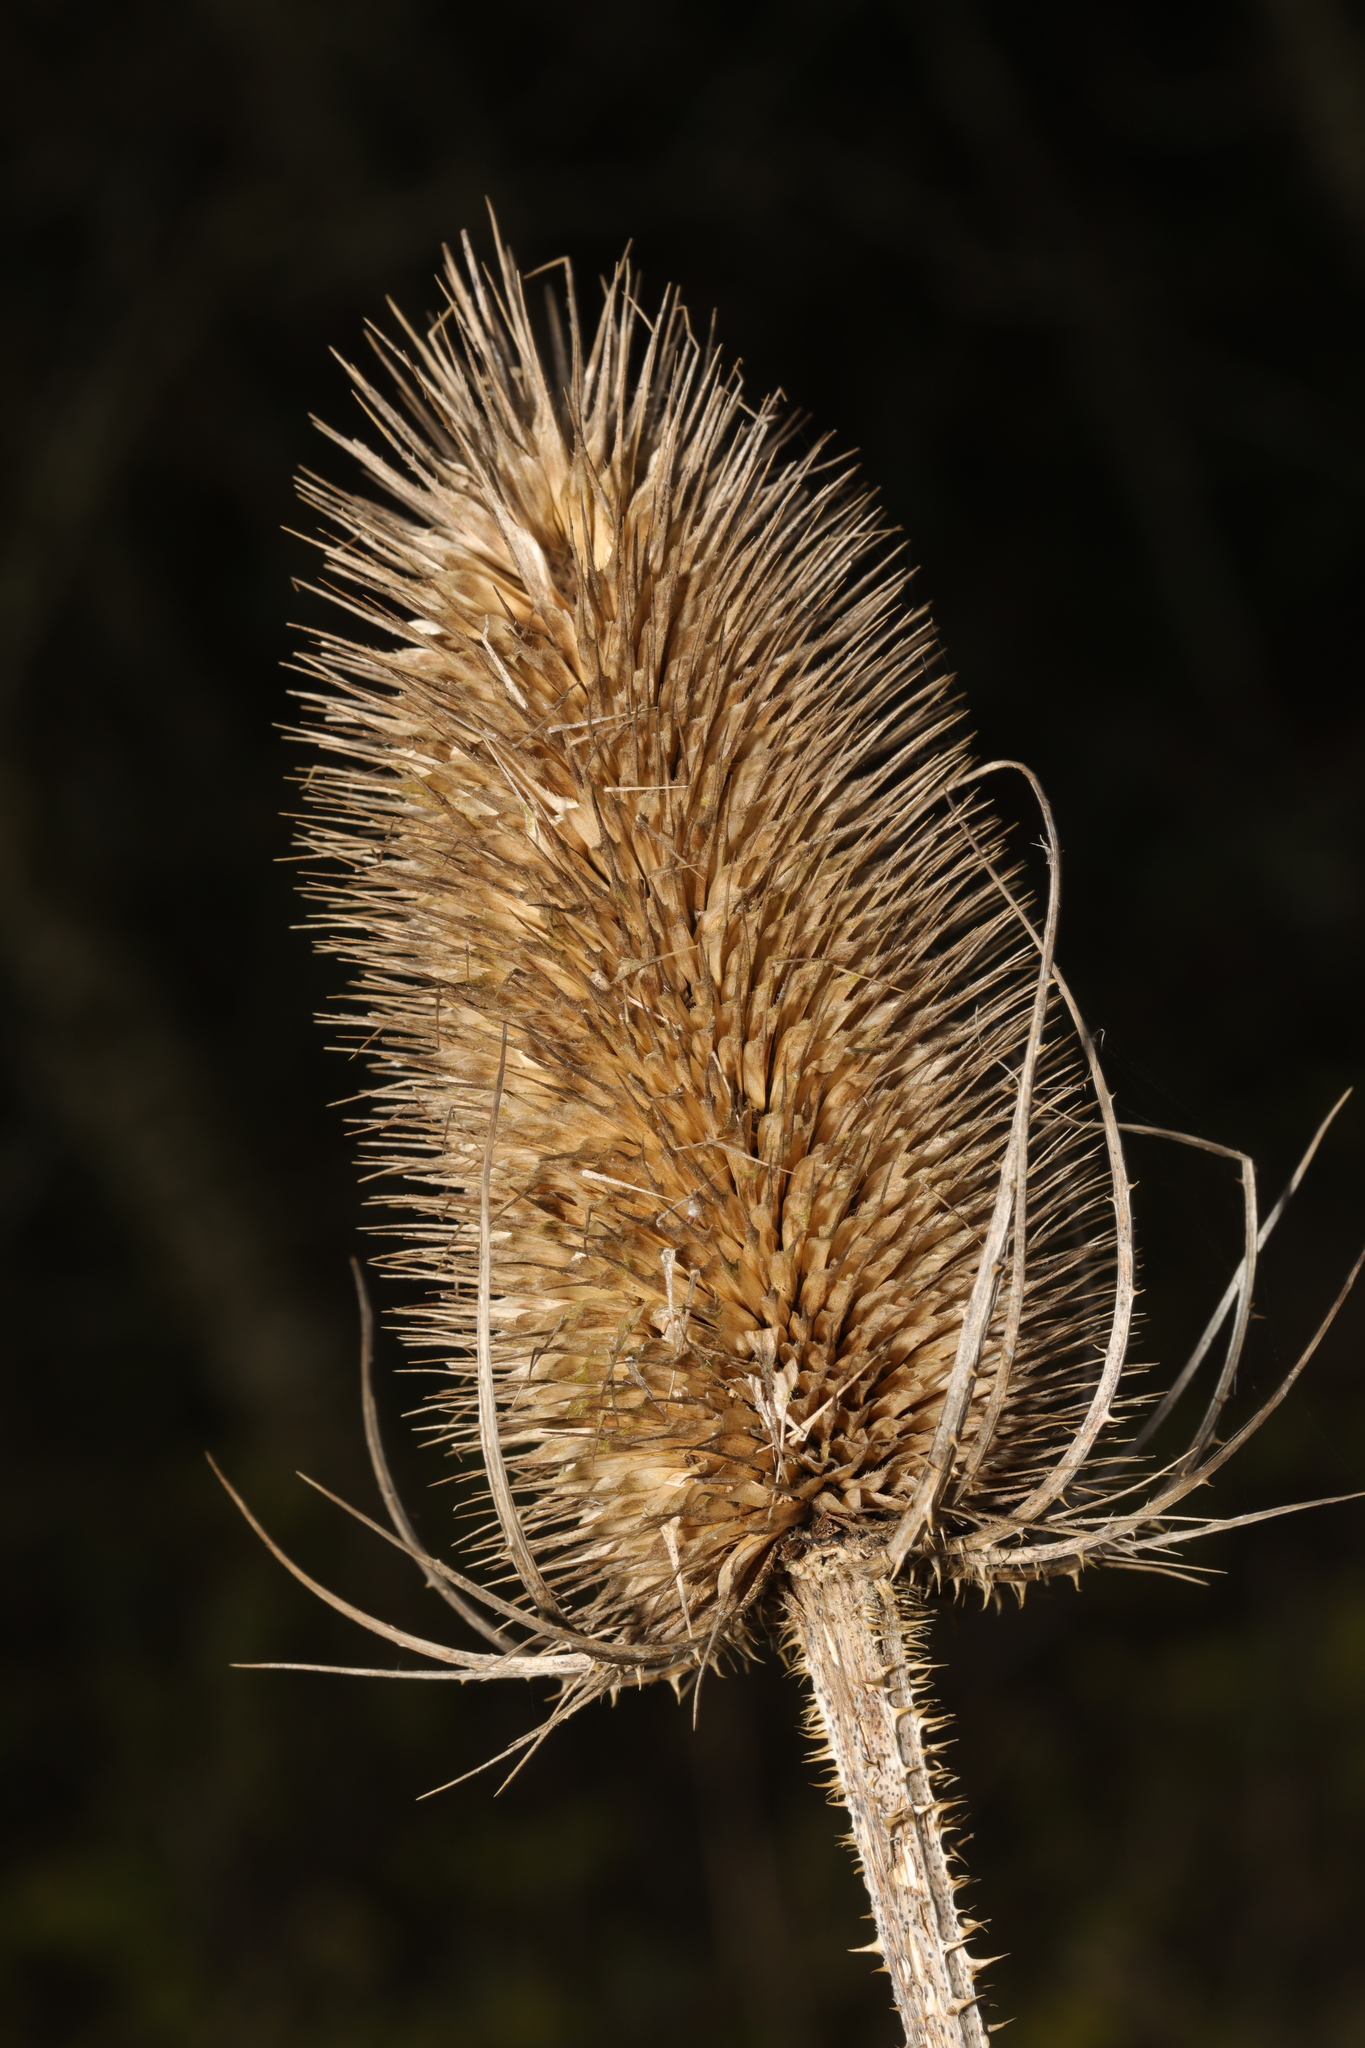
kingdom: Plantae
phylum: Tracheophyta
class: Magnoliopsida
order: Dipsacales
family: Caprifoliaceae
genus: Dipsacus
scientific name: Dipsacus fullonum
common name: Teasel
